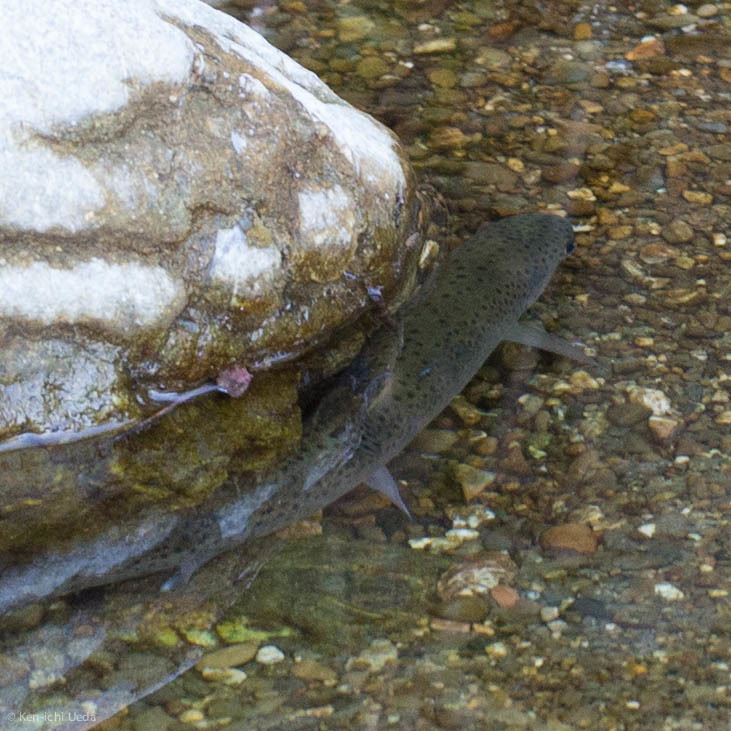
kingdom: Animalia
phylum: Chordata
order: Salmoniformes
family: Salmonidae
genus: Oncorhynchus
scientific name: Oncorhynchus mykiss
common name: Rainbow trout
